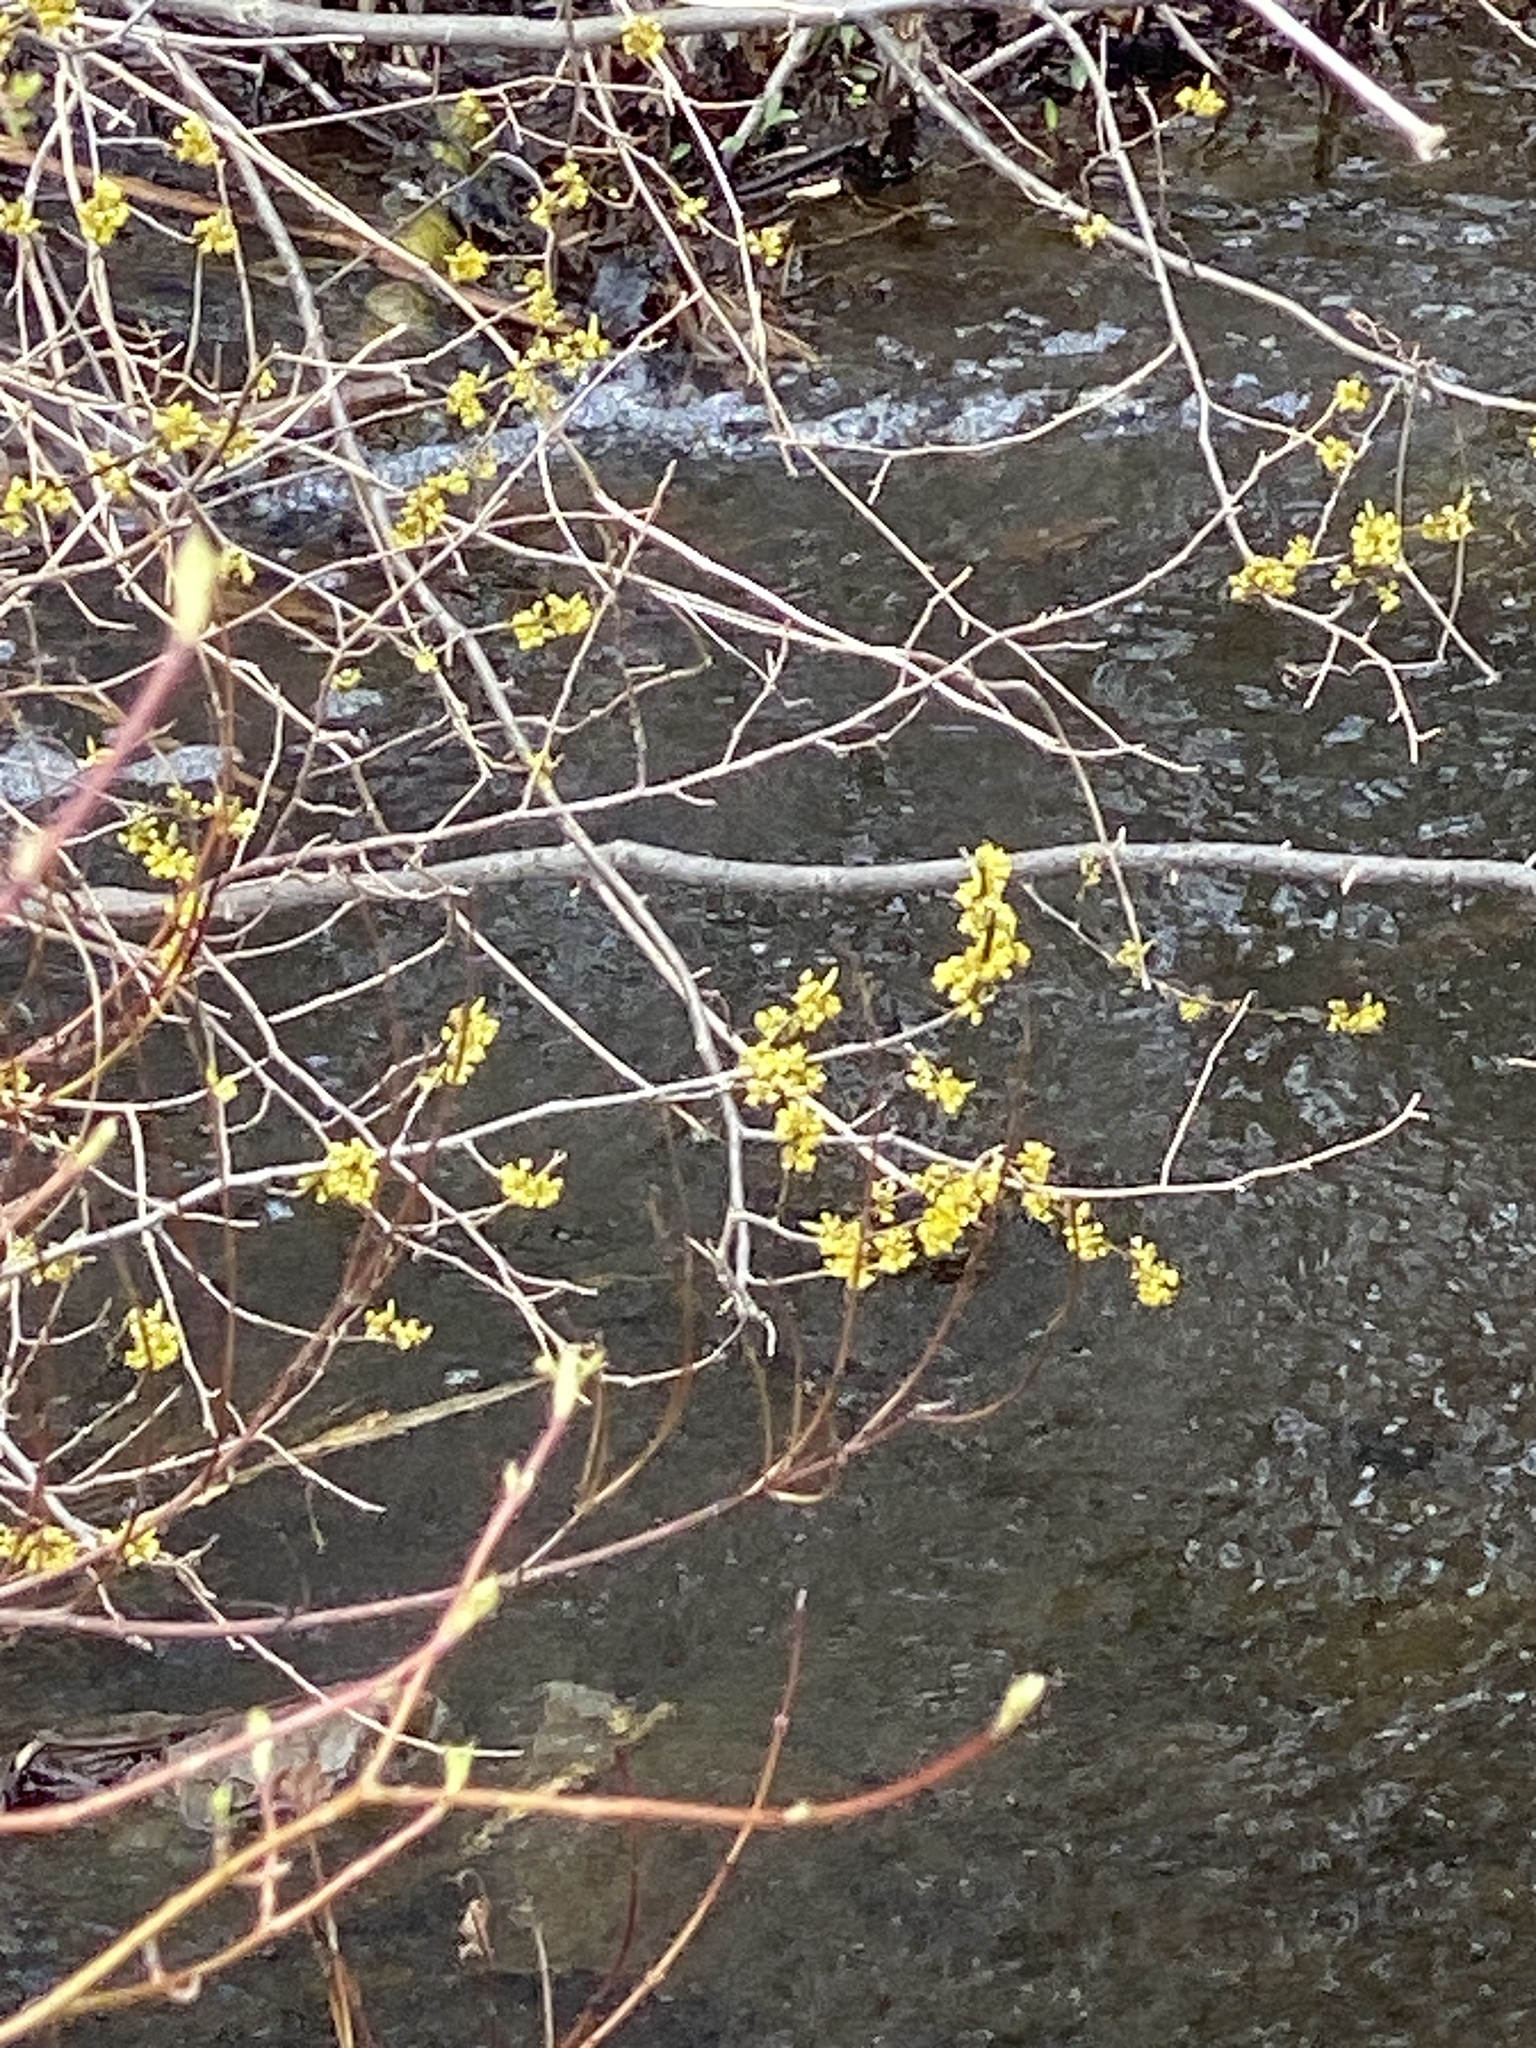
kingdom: Plantae
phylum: Tracheophyta
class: Magnoliopsida
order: Laurales
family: Lauraceae
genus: Lindera
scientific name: Lindera benzoin
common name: Spicebush
